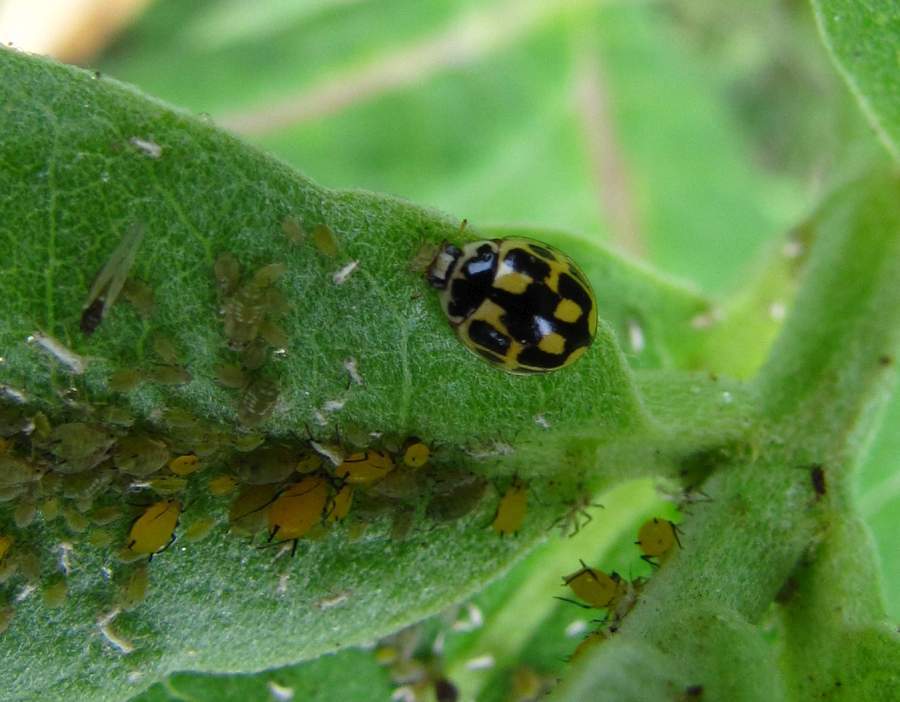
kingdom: Animalia
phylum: Arthropoda
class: Insecta
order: Coleoptera
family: Coccinellidae
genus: Propylaea
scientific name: Propylaea quatuordecimpunctata
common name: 14-spotted ladybird beetle
